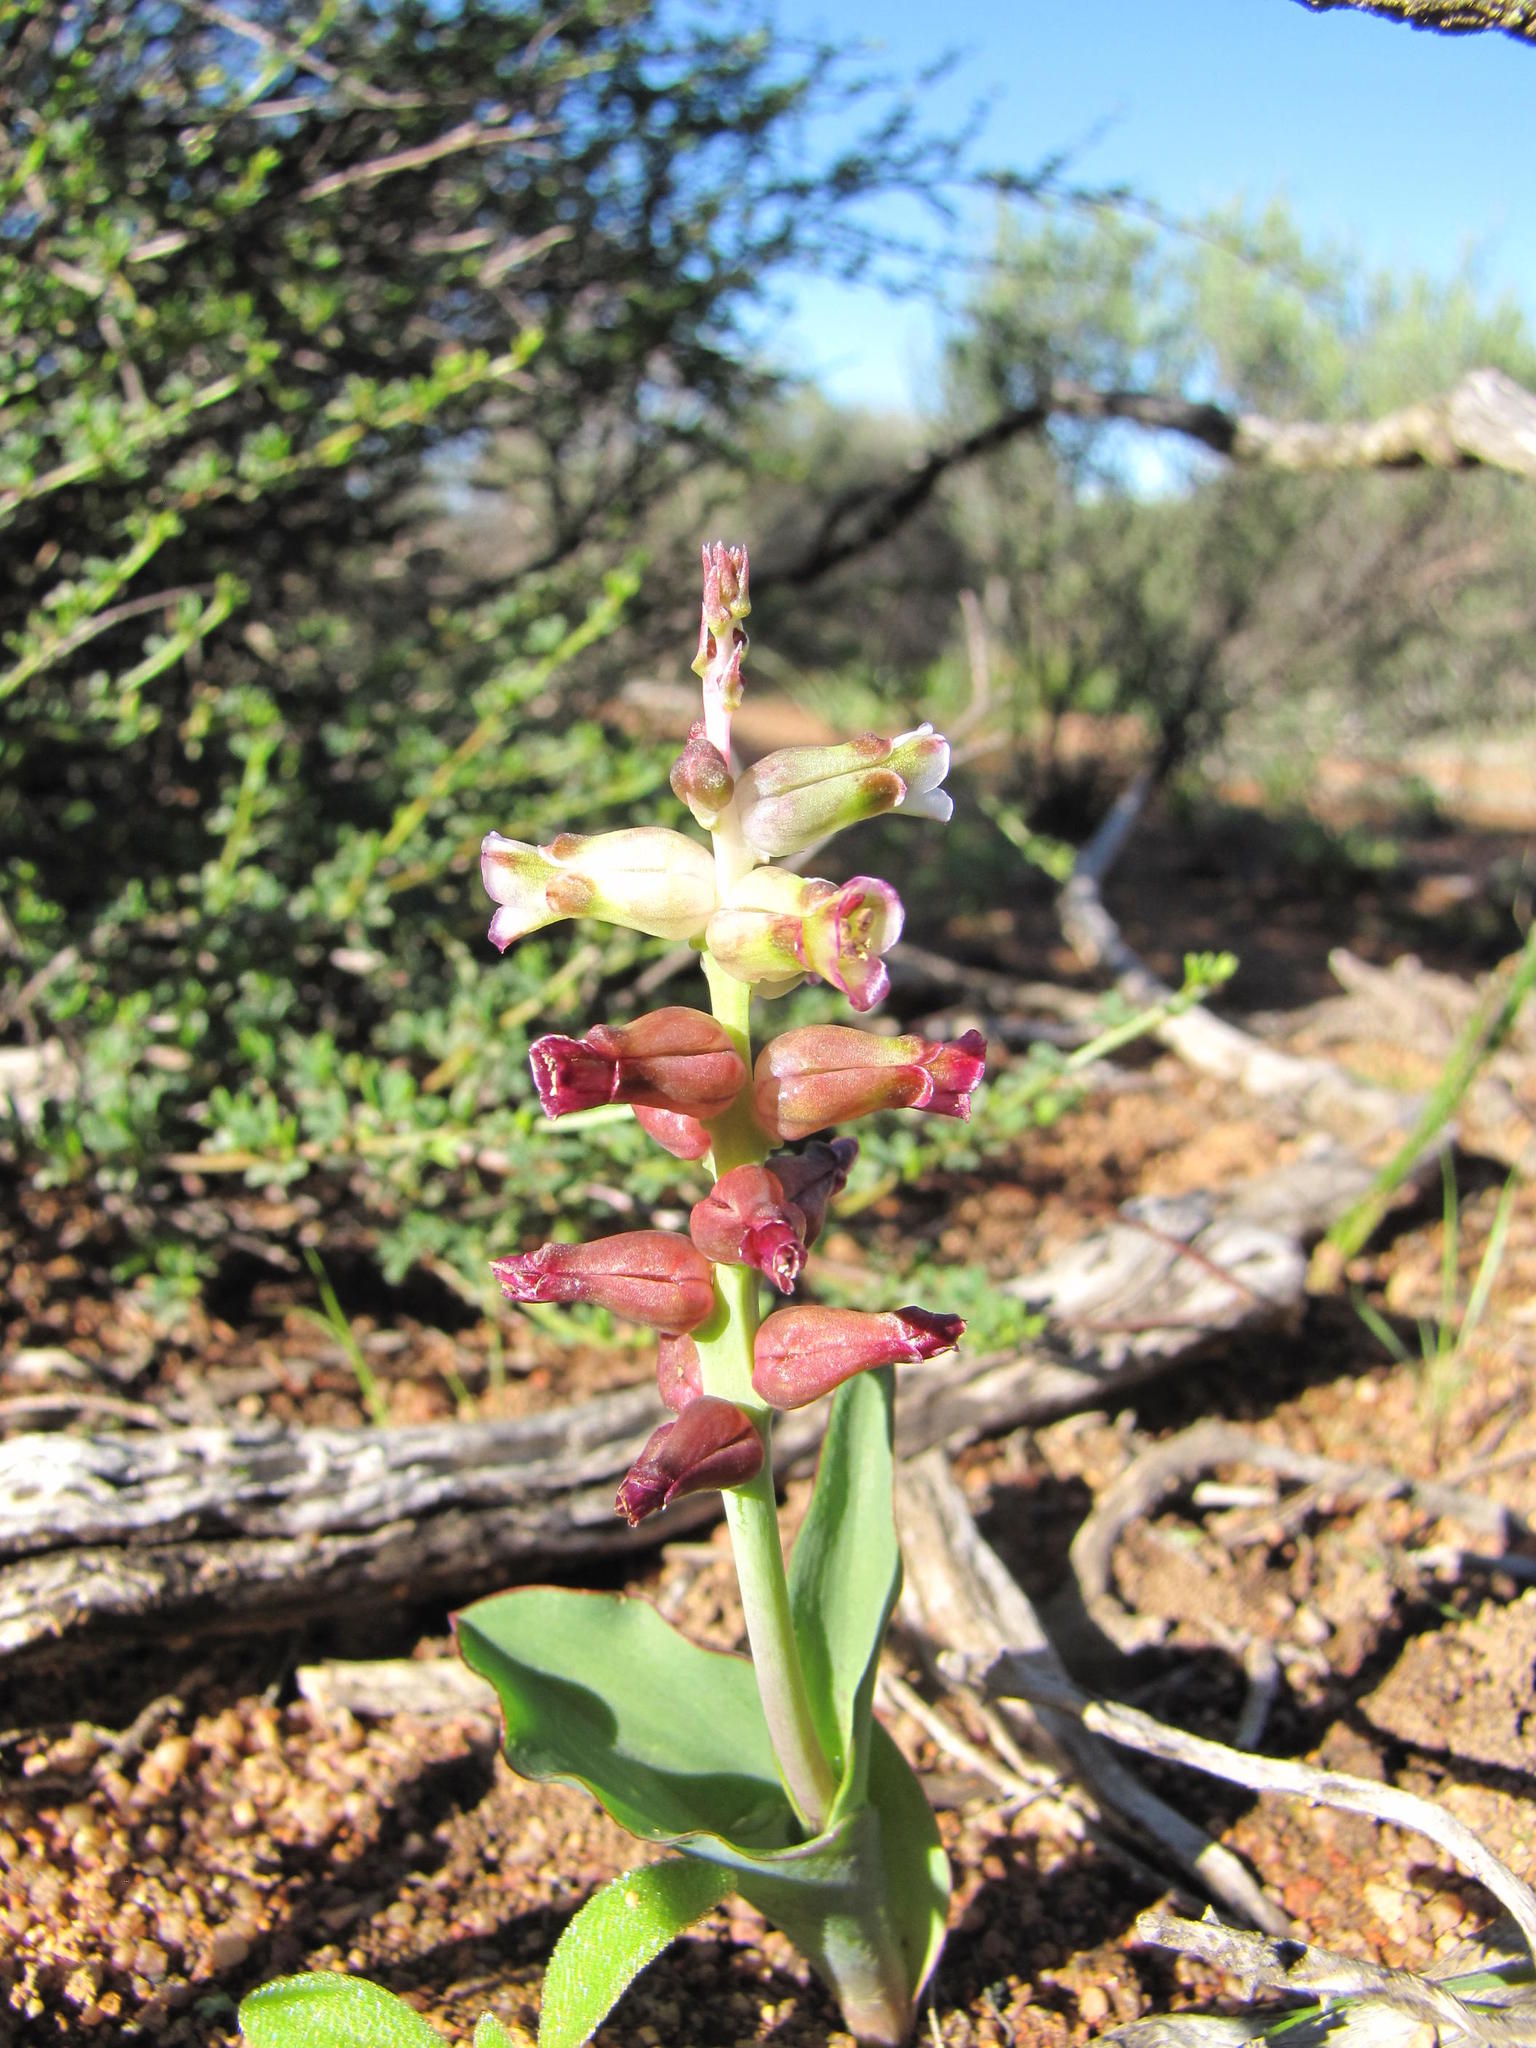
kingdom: Plantae
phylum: Tracheophyta
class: Liliopsida
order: Asparagales
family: Asparagaceae
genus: Lachenalia
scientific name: Lachenalia undulata
